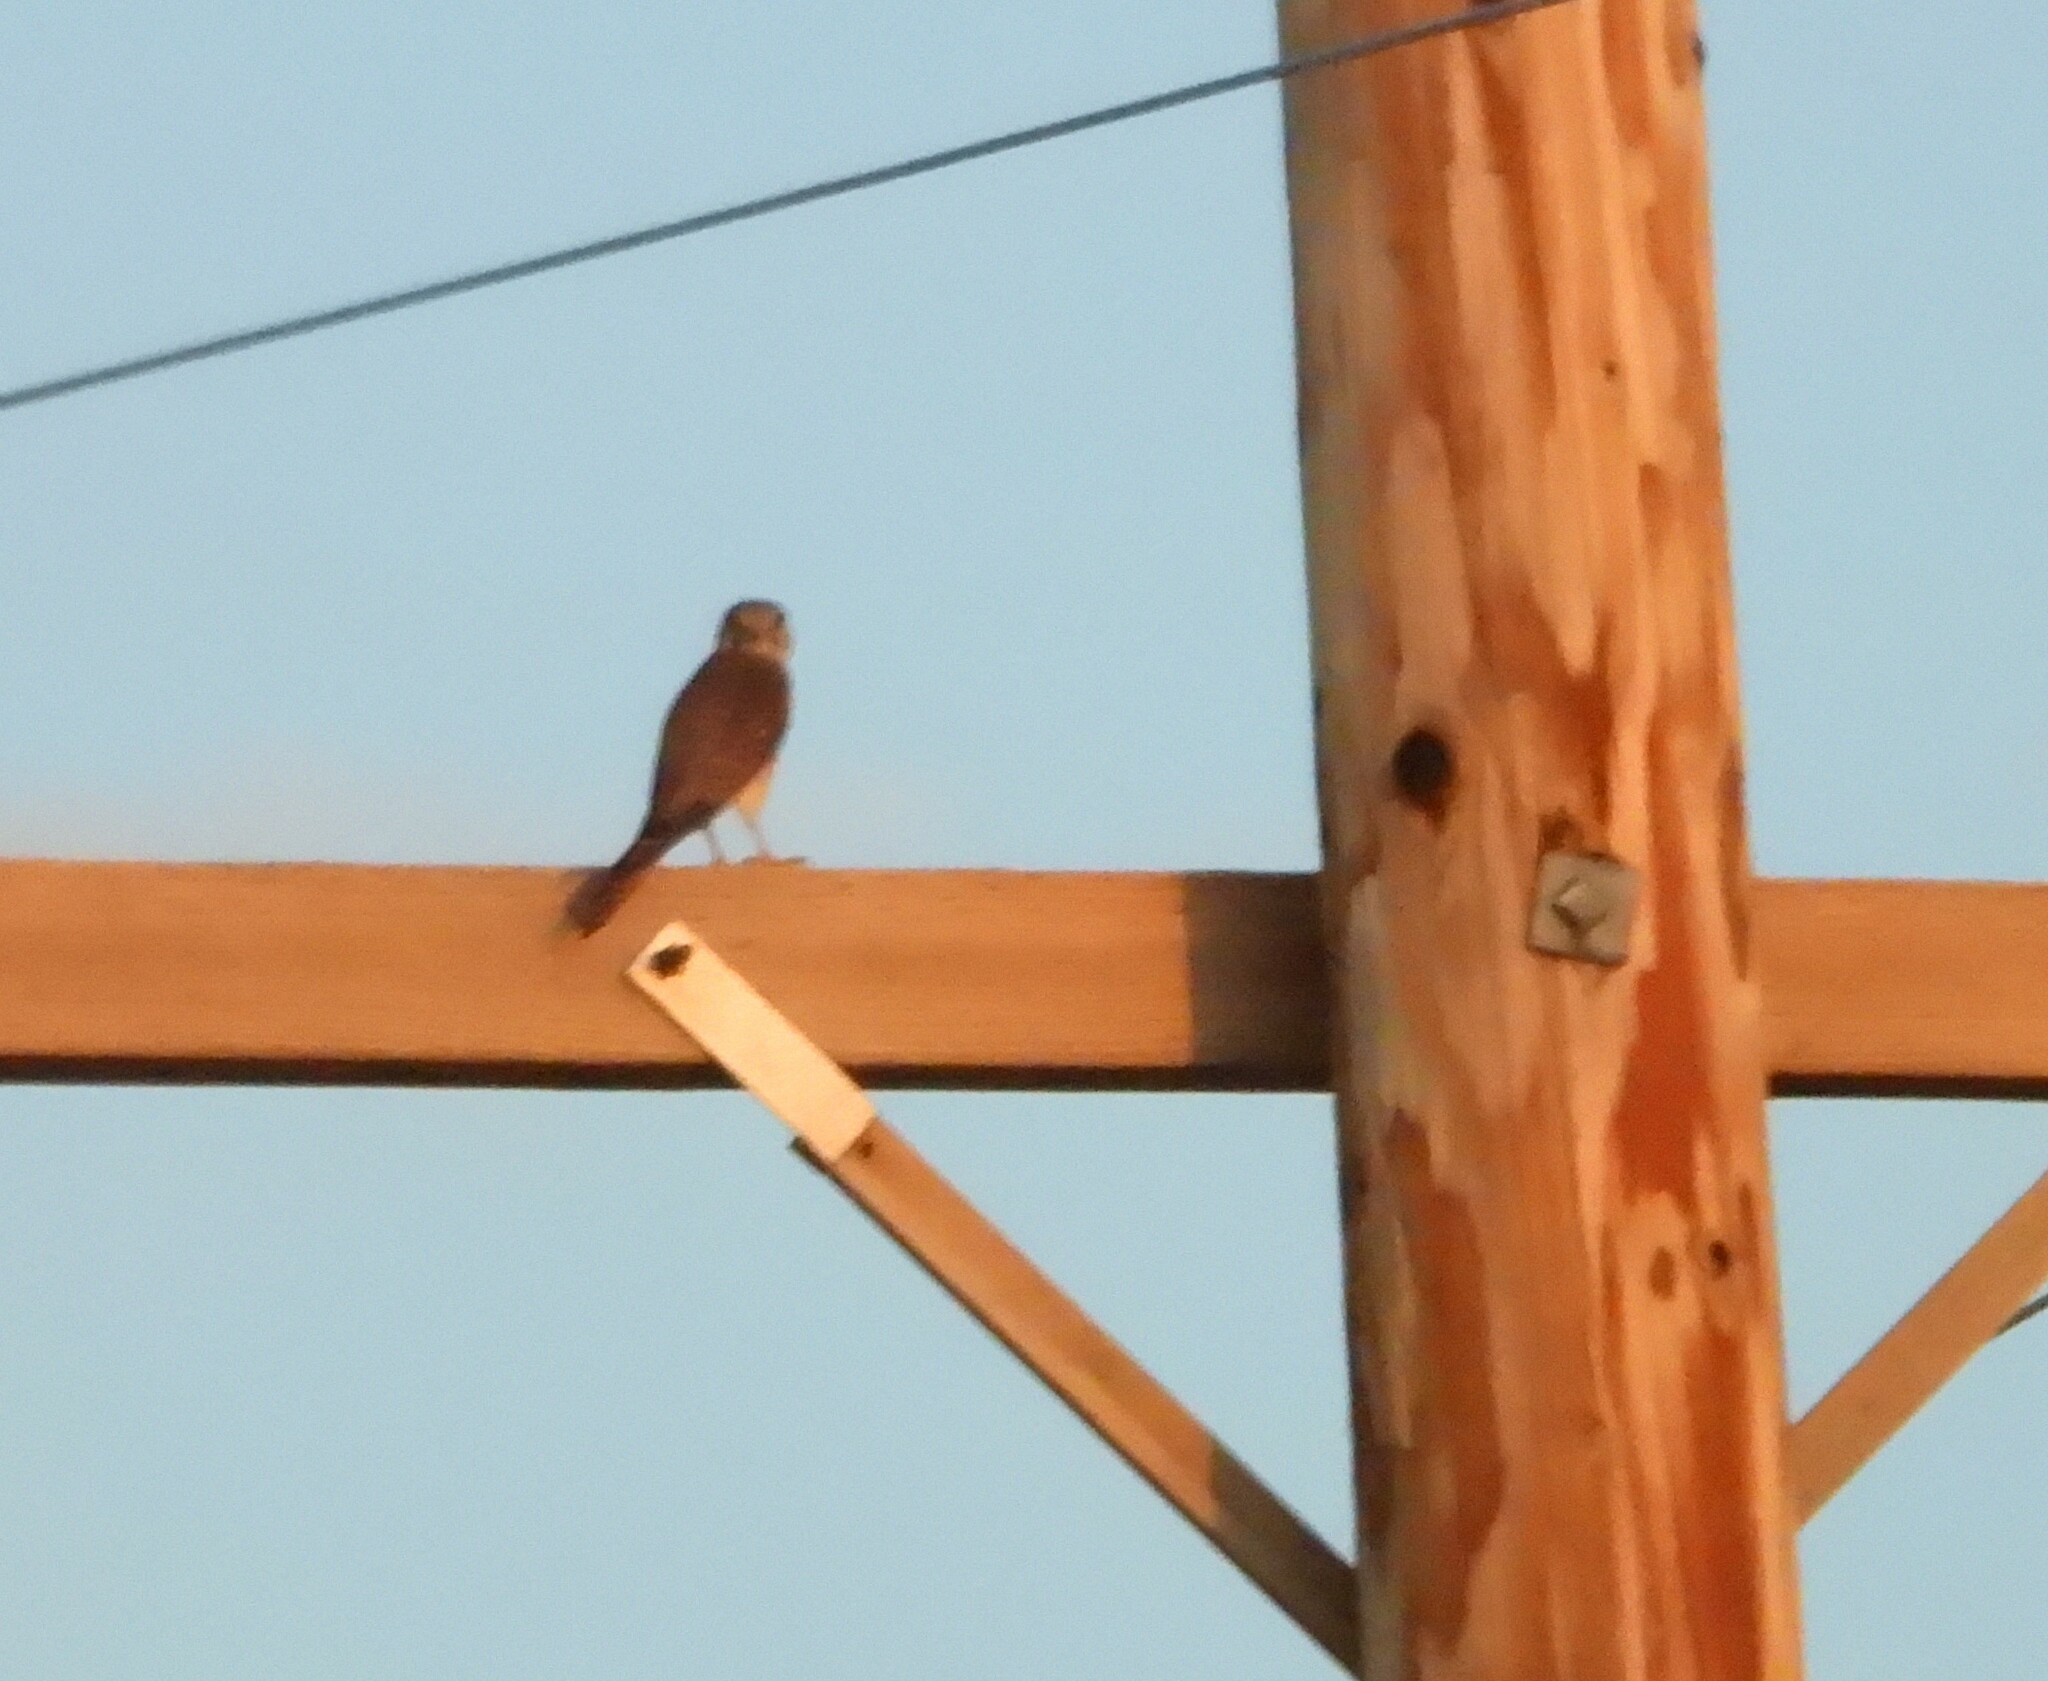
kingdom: Animalia
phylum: Chordata
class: Aves
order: Falconiformes
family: Falconidae
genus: Falco
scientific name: Falco sparverius
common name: American kestrel
